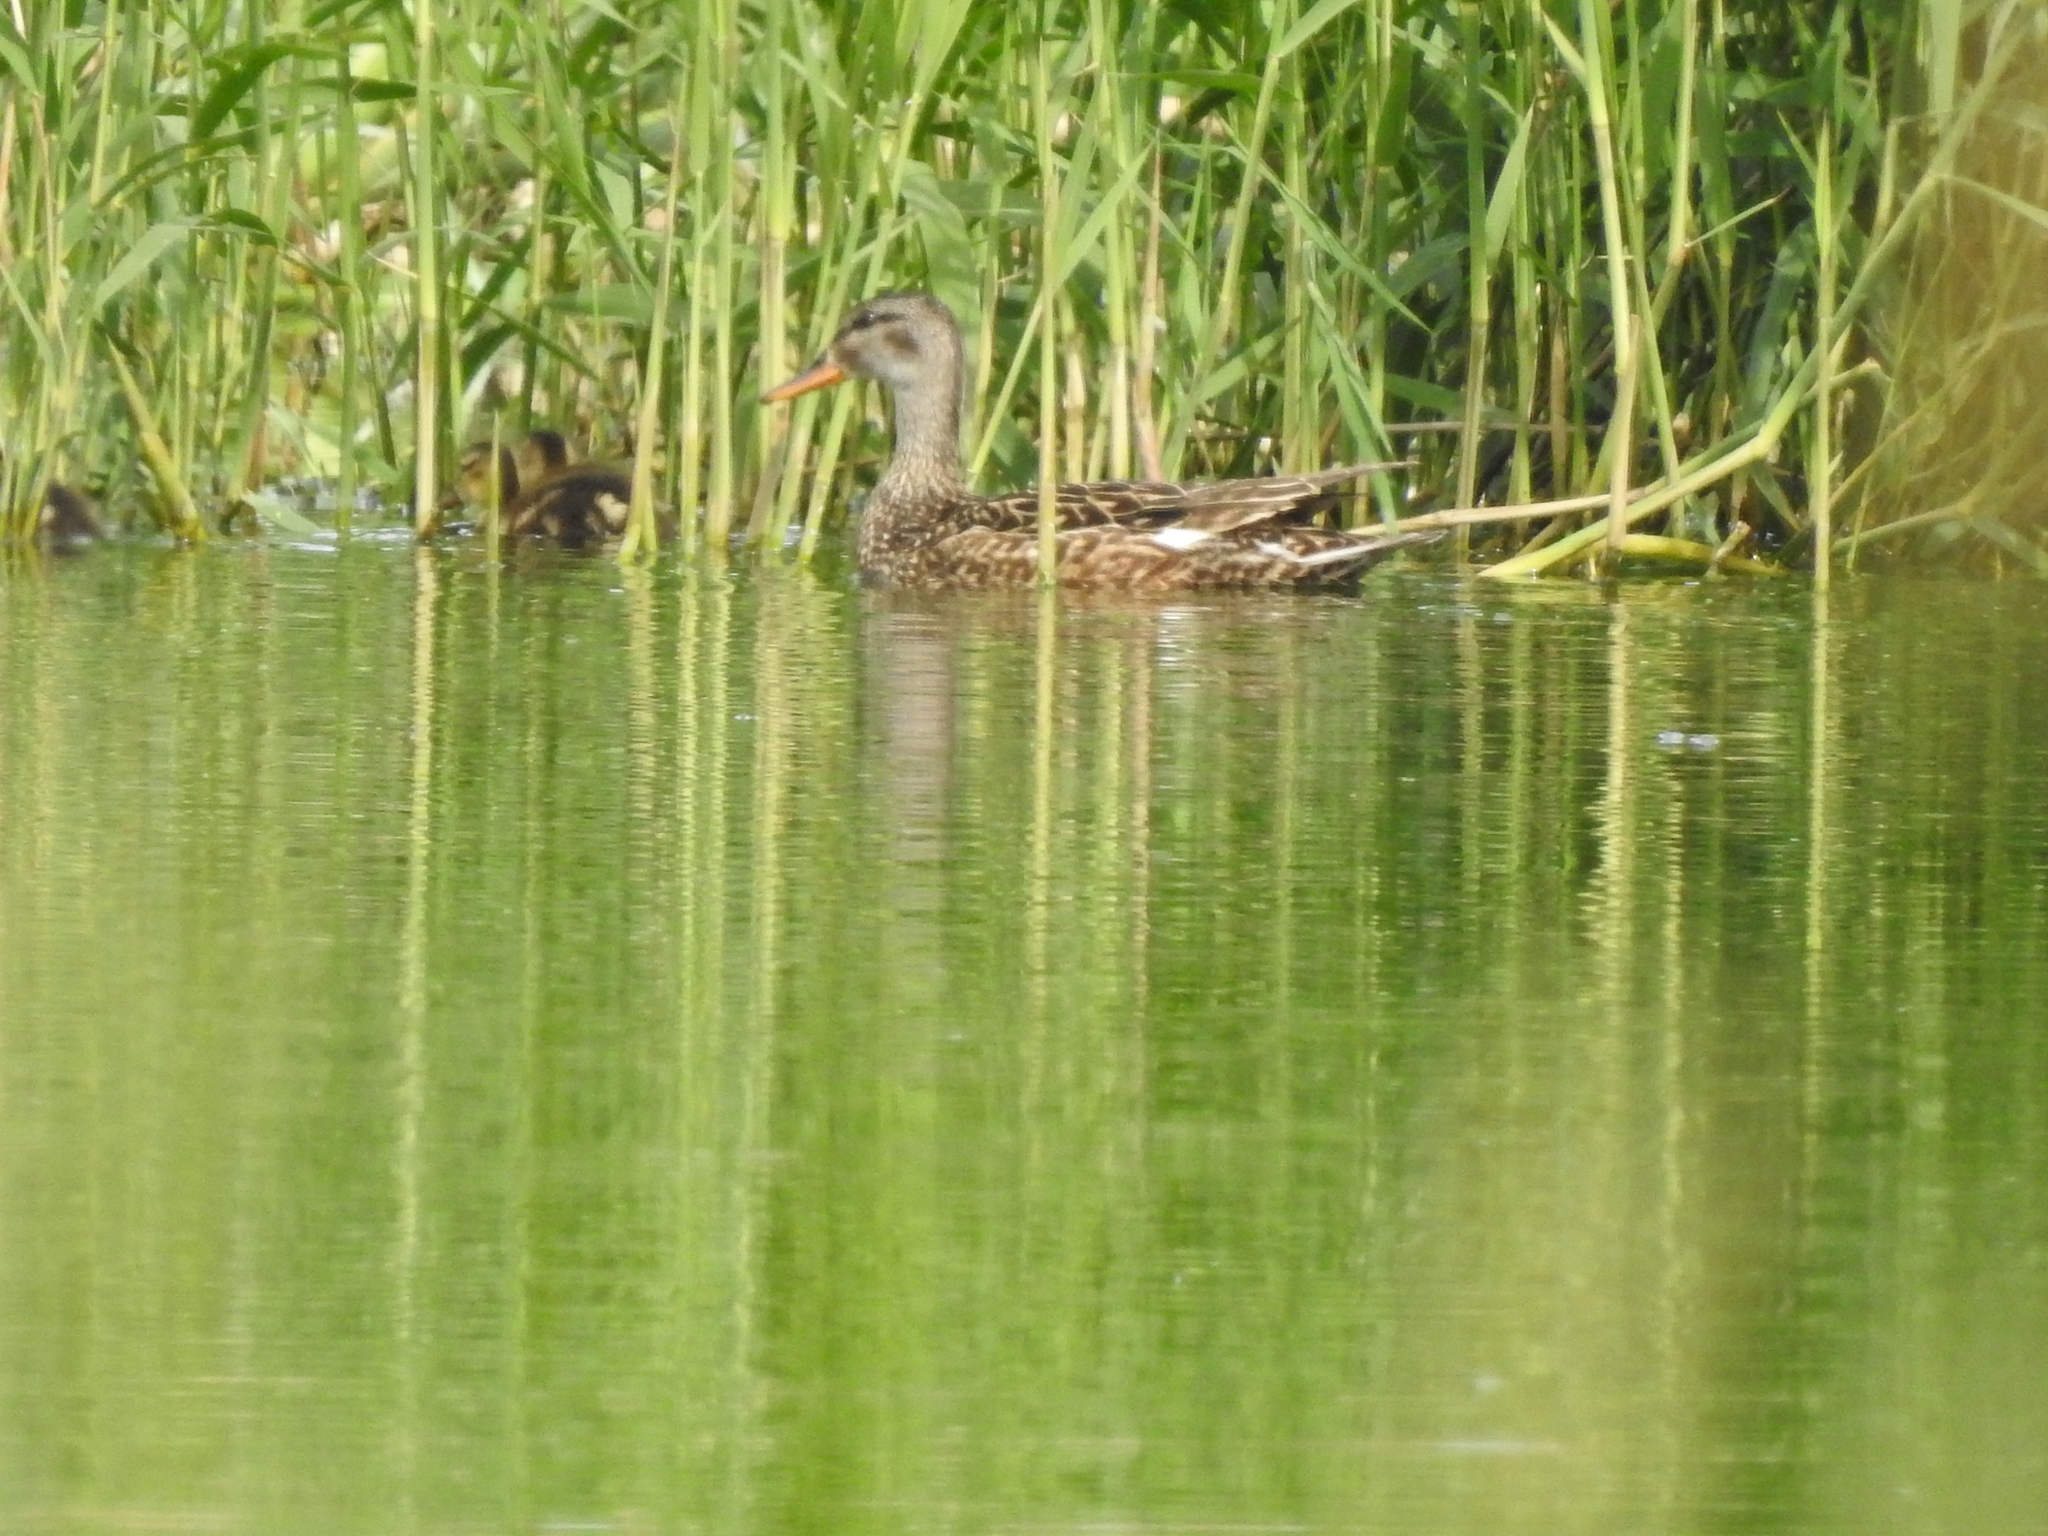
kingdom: Animalia
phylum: Chordata
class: Aves
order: Anseriformes
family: Anatidae
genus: Mareca
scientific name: Mareca strepera
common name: Gadwall
